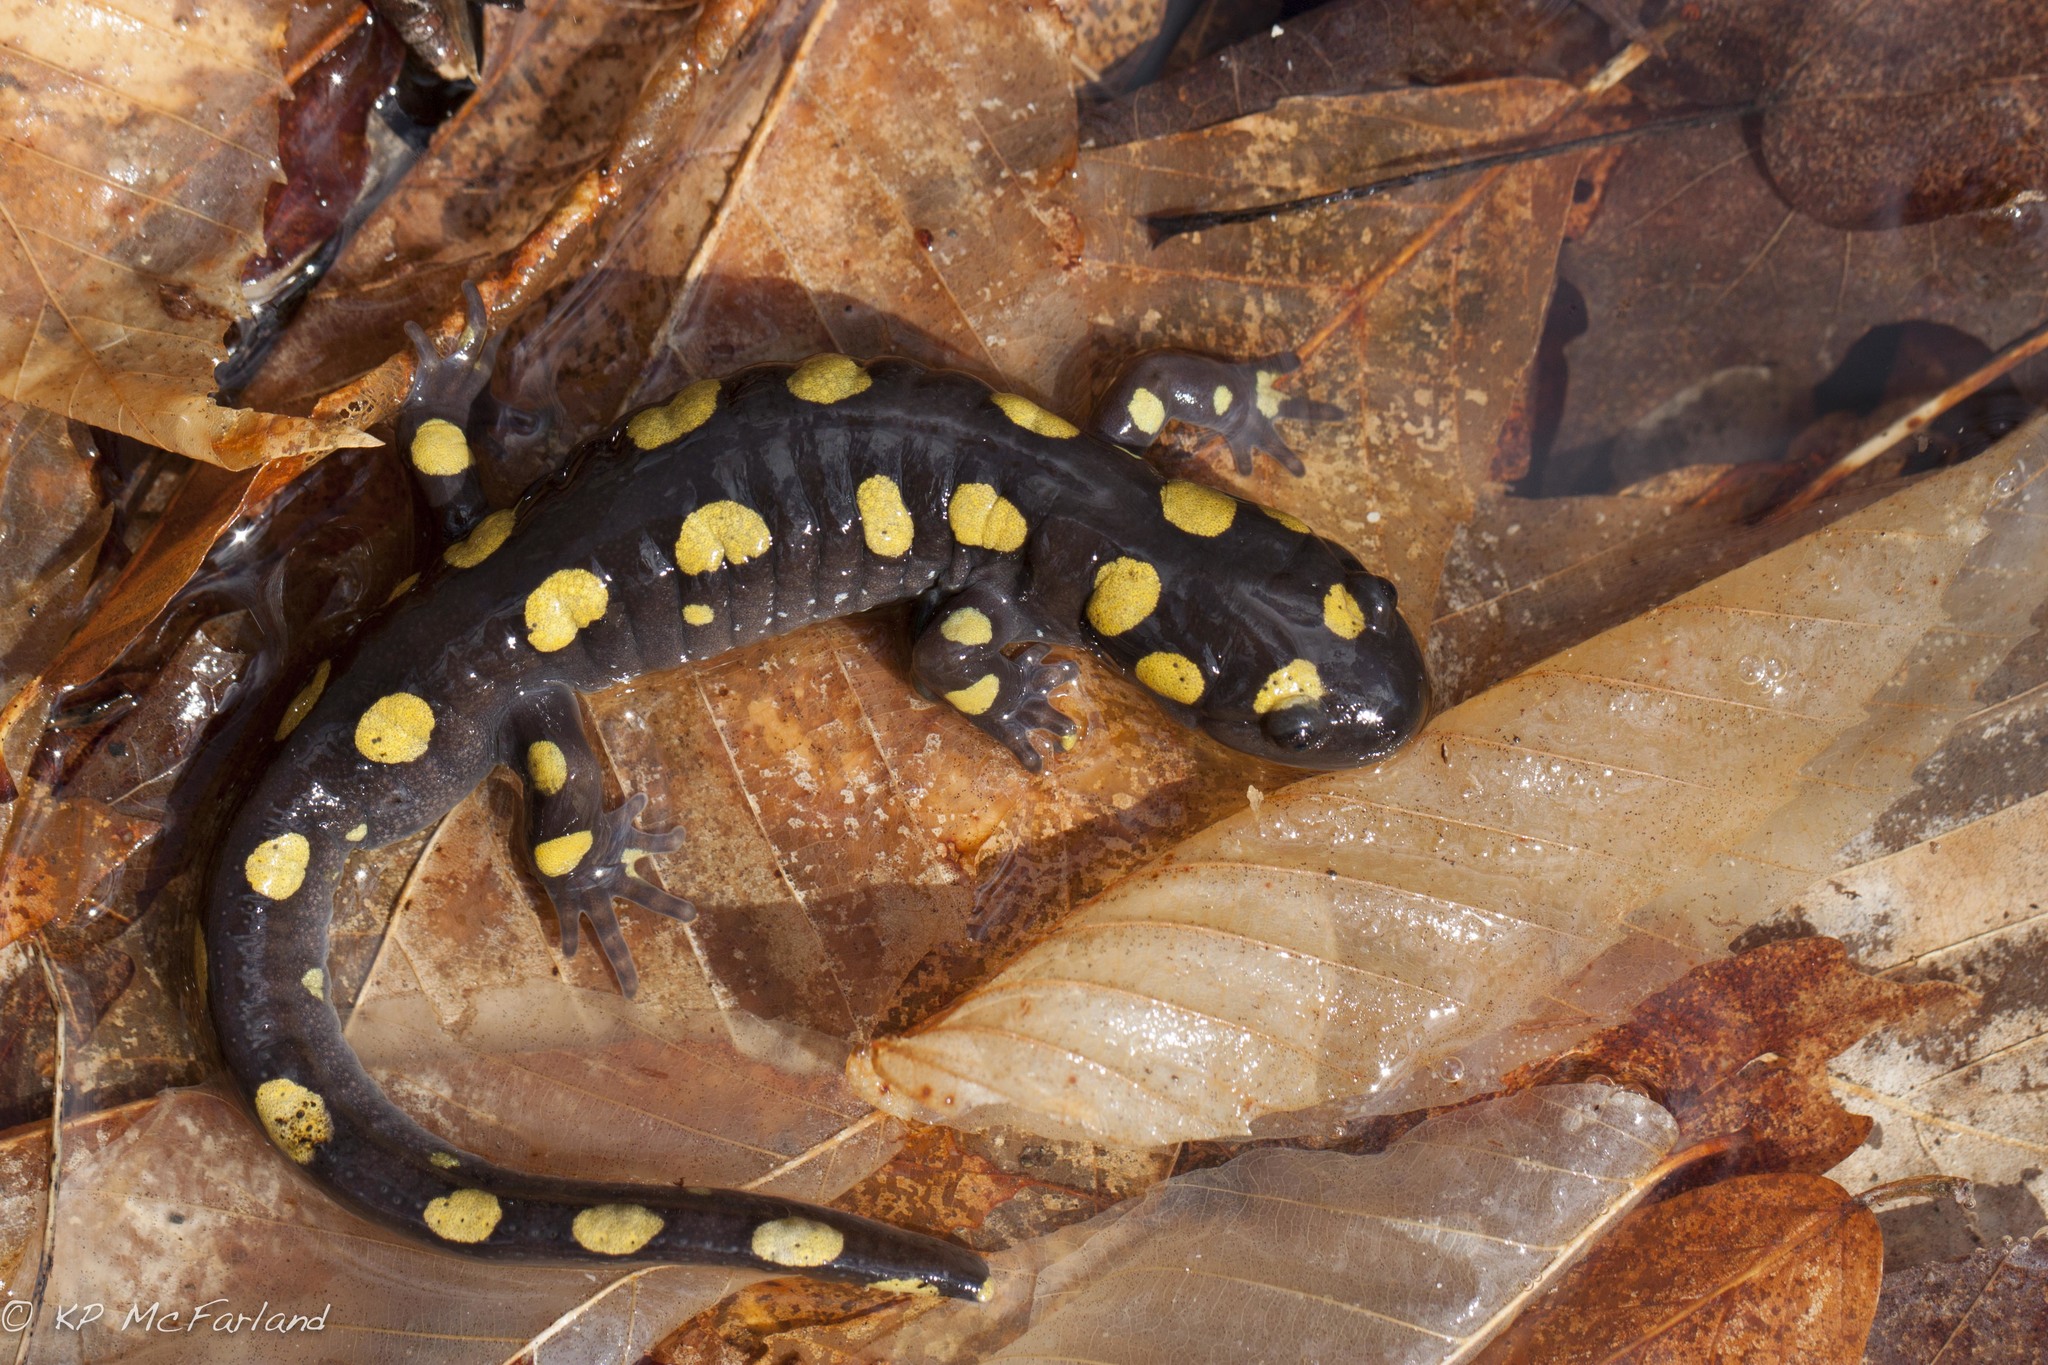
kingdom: Animalia
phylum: Chordata
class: Amphibia
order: Caudata
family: Ambystomatidae
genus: Ambystoma
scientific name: Ambystoma maculatum
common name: Spotted salamander
